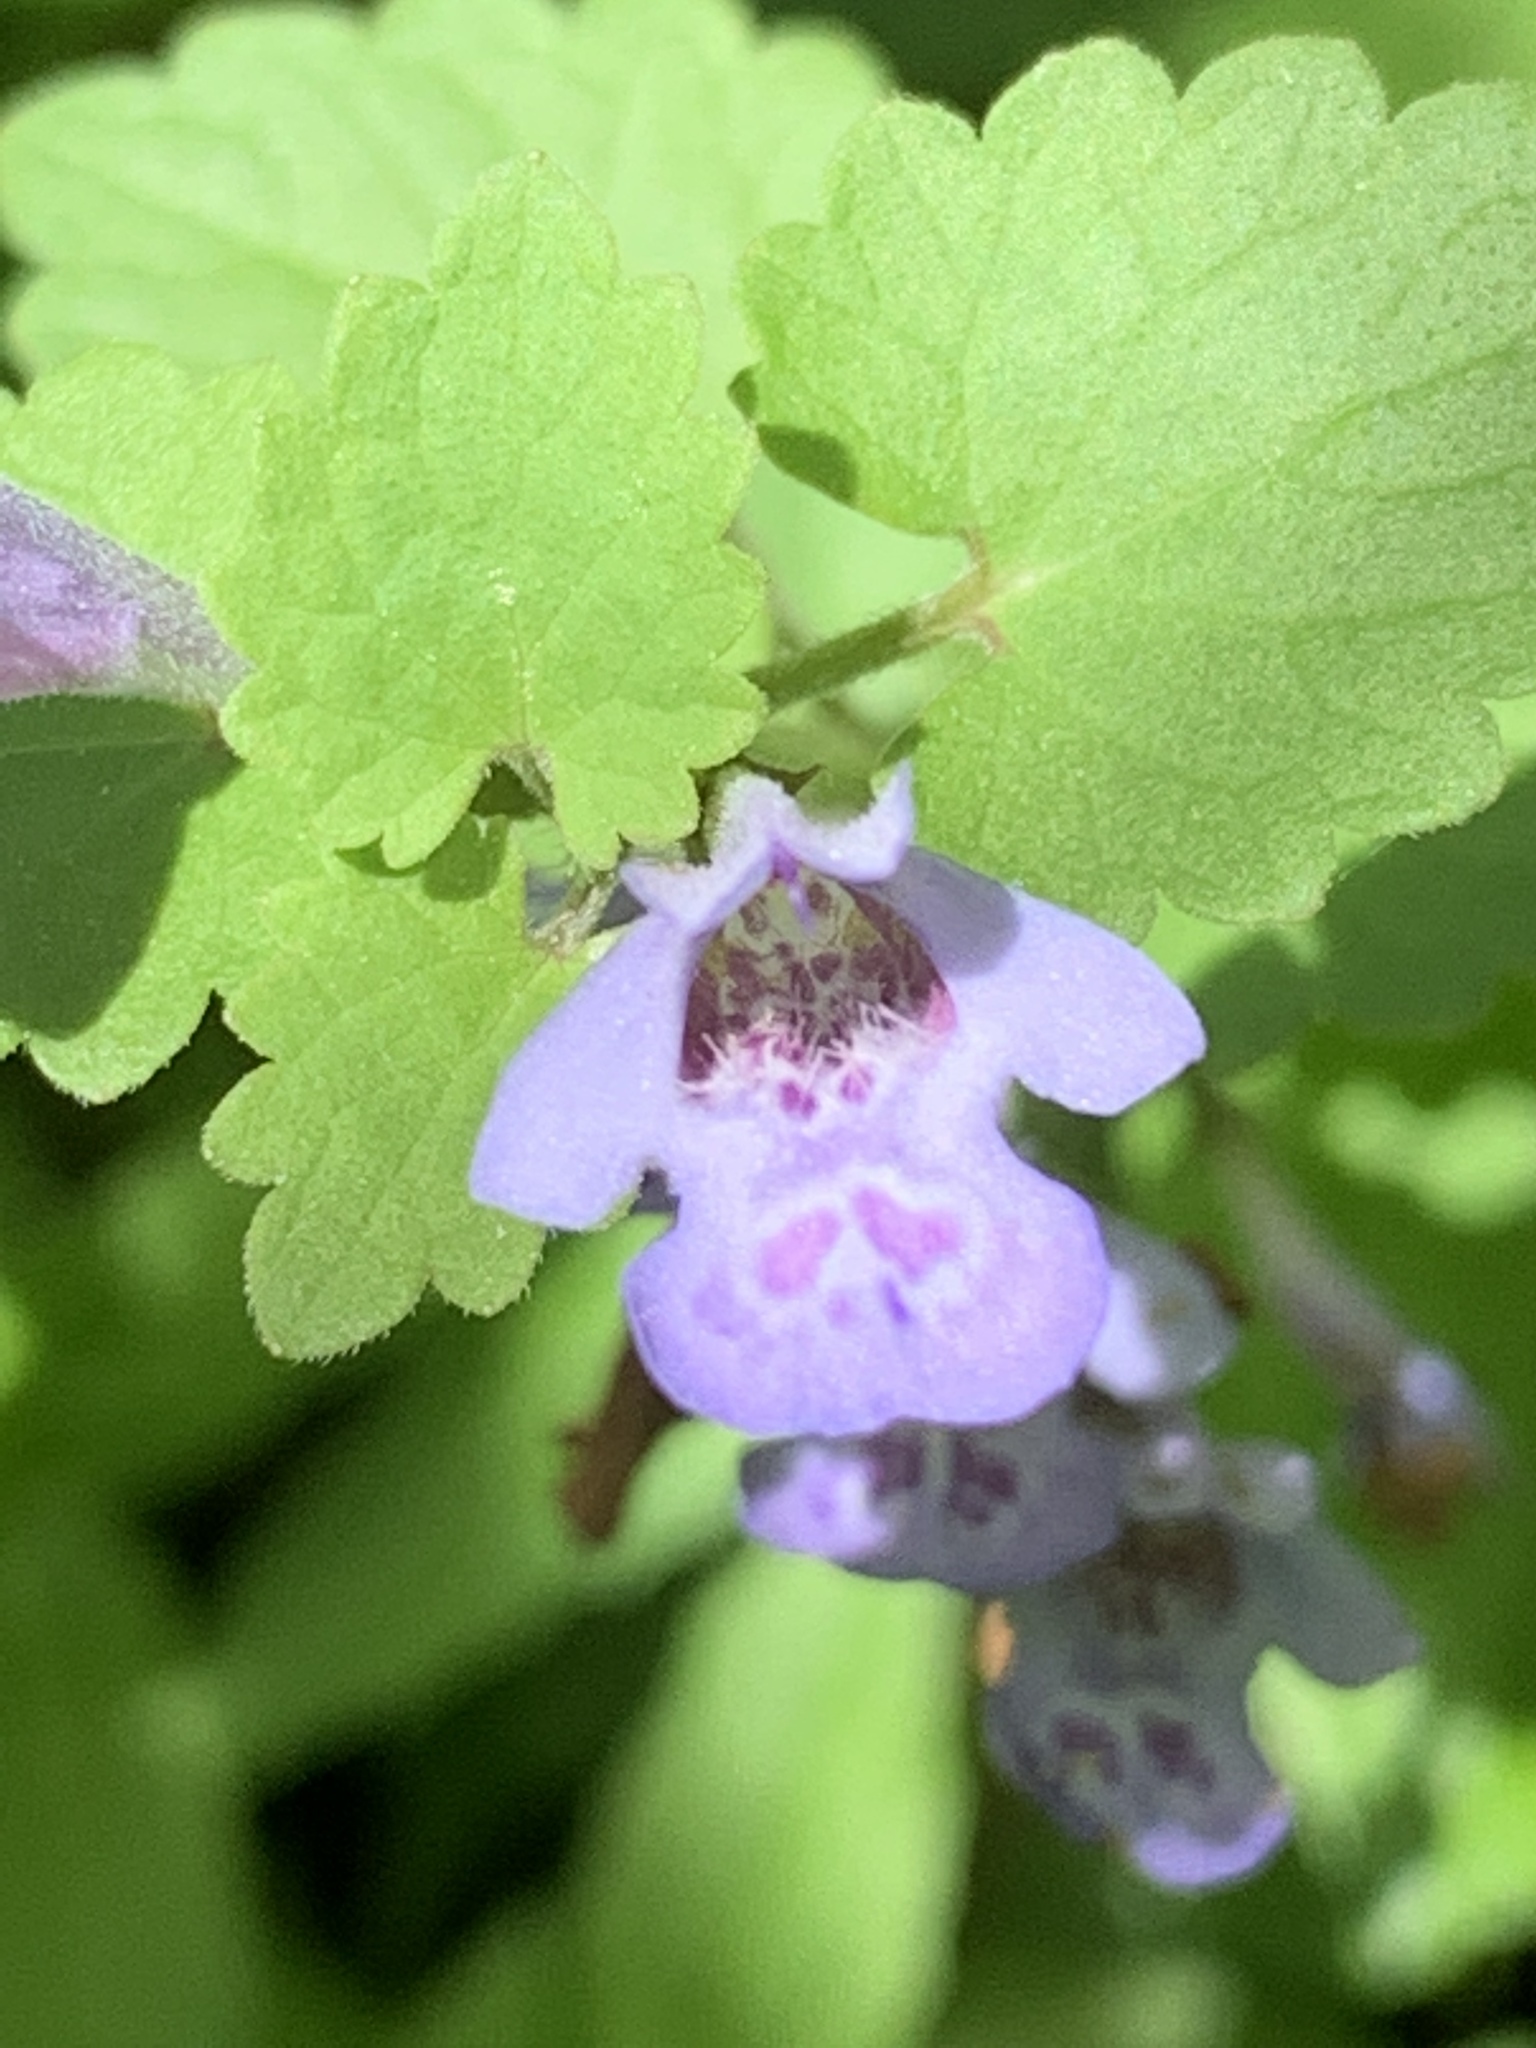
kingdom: Plantae
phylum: Tracheophyta
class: Magnoliopsida
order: Lamiales
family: Lamiaceae
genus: Glechoma
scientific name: Glechoma hederacea
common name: Ground ivy
